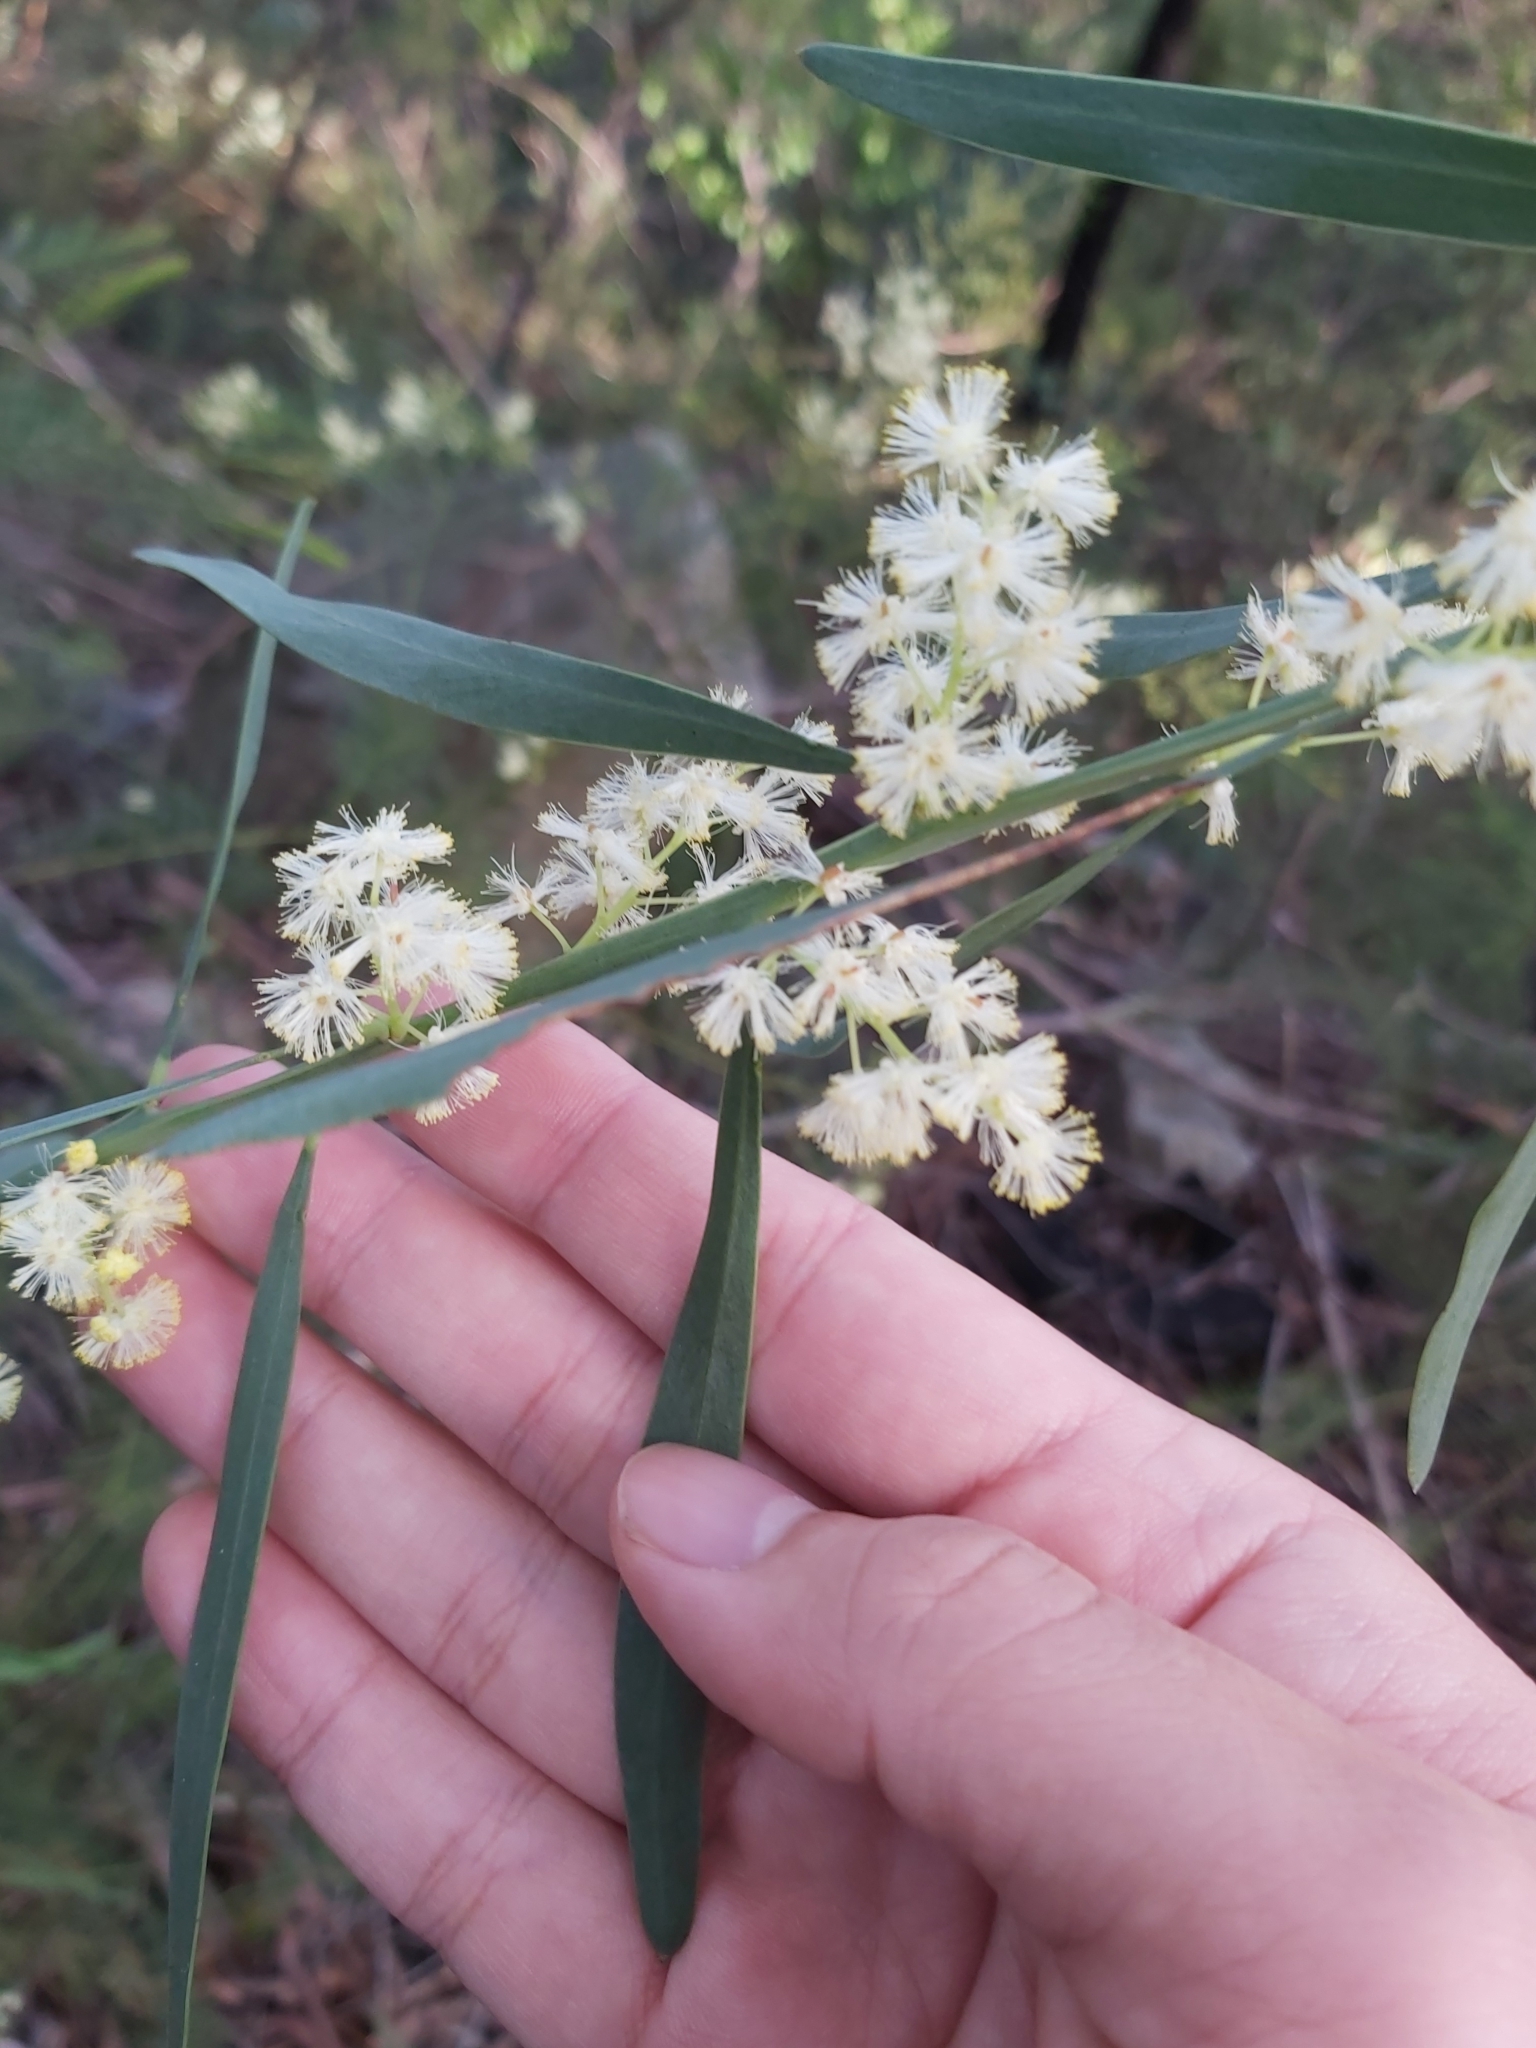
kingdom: Plantae
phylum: Tracheophyta
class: Magnoliopsida
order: Fabales
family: Fabaceae
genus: Acacia
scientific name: Acacia suaveolens
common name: Sweet acacia
